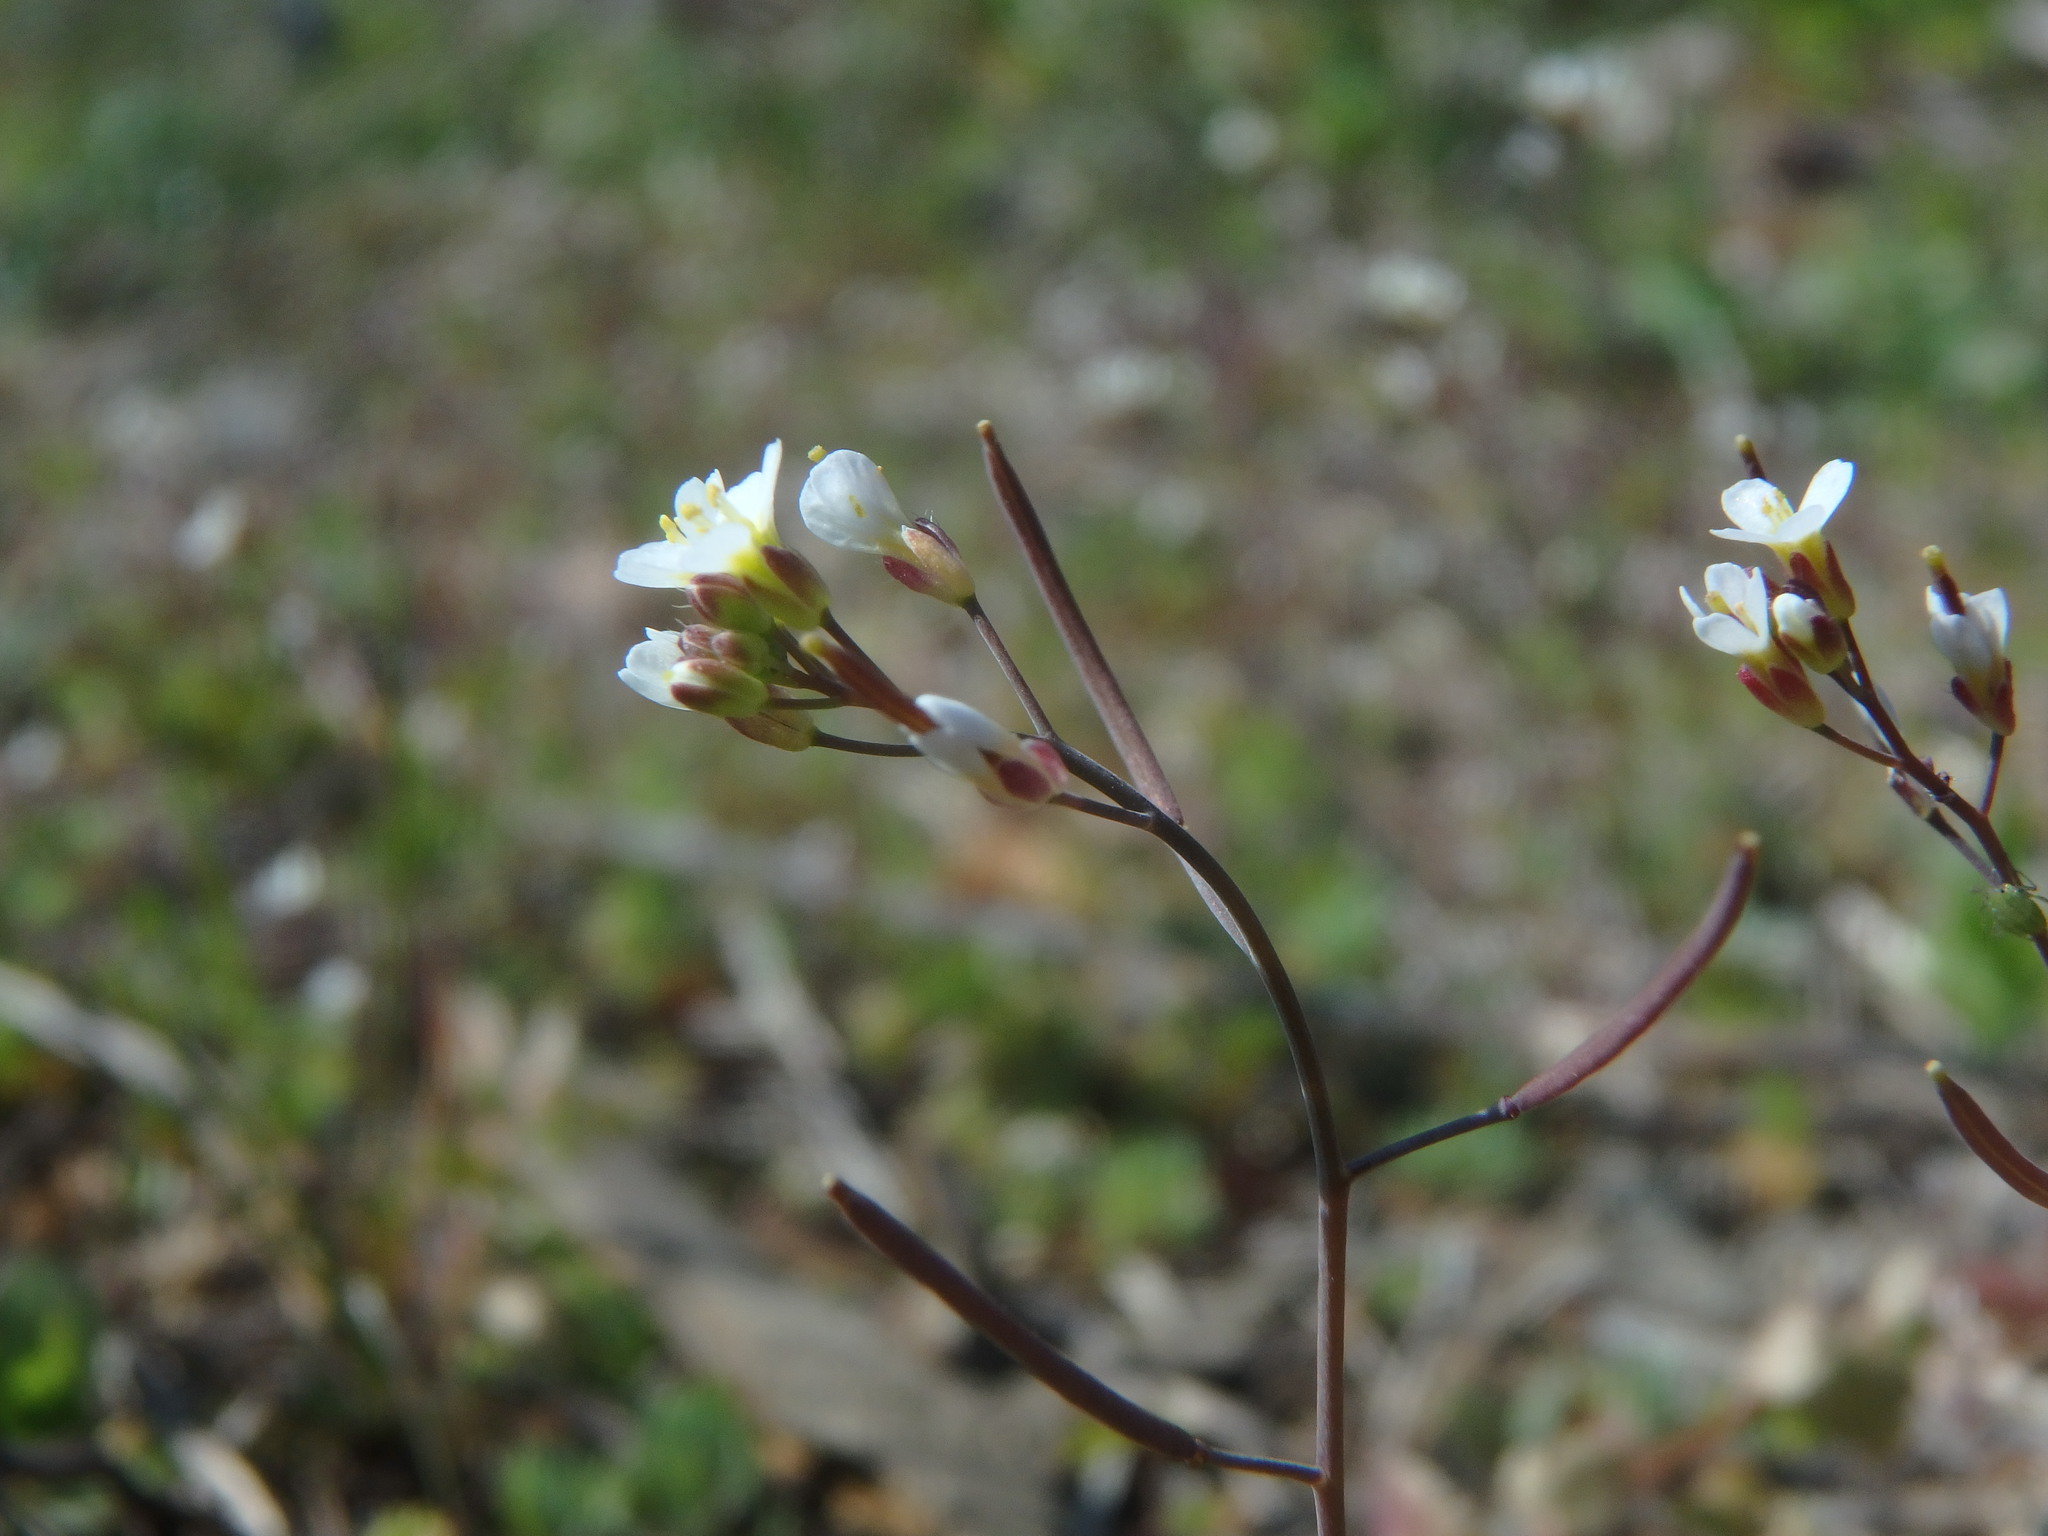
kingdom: Plantae
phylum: Tracheophyta
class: Magnoliopsida
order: Brassicales
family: Brassicaceae
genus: Arabidopsis
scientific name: Arabidopsis thaliana
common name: Thale cress
